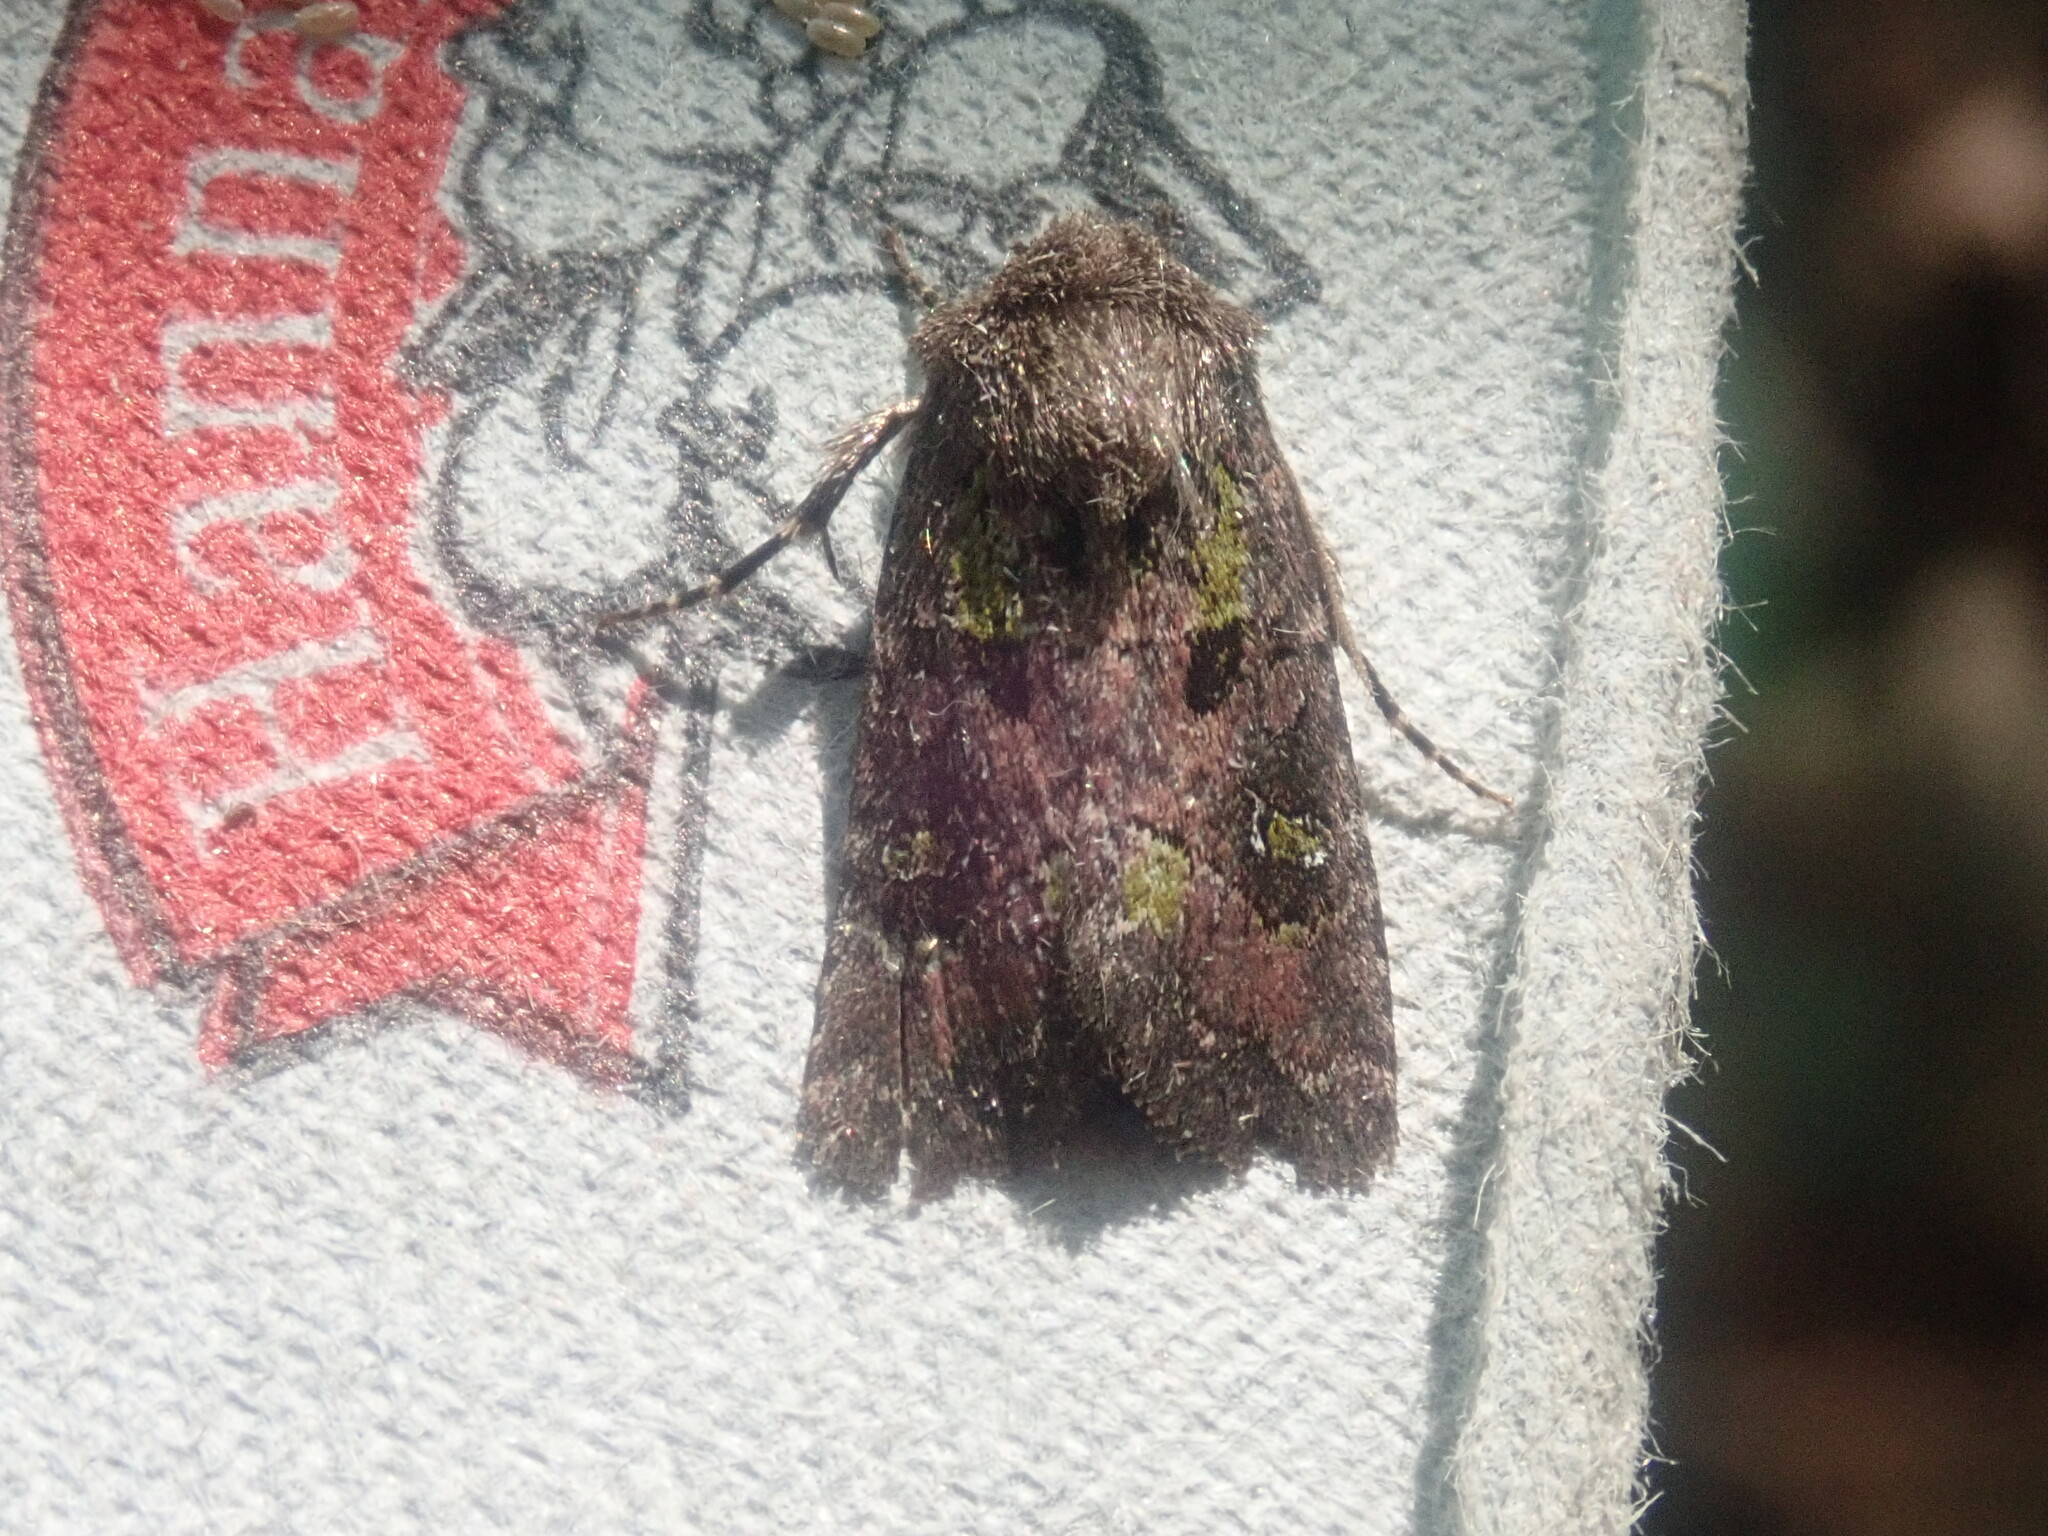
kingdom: Animalia
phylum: Arthropoda
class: Insecta
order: Lepidoptera
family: Noctuidae
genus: Lacinipolia
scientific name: Lacinipolia renigera
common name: Kidney-spotted minor
